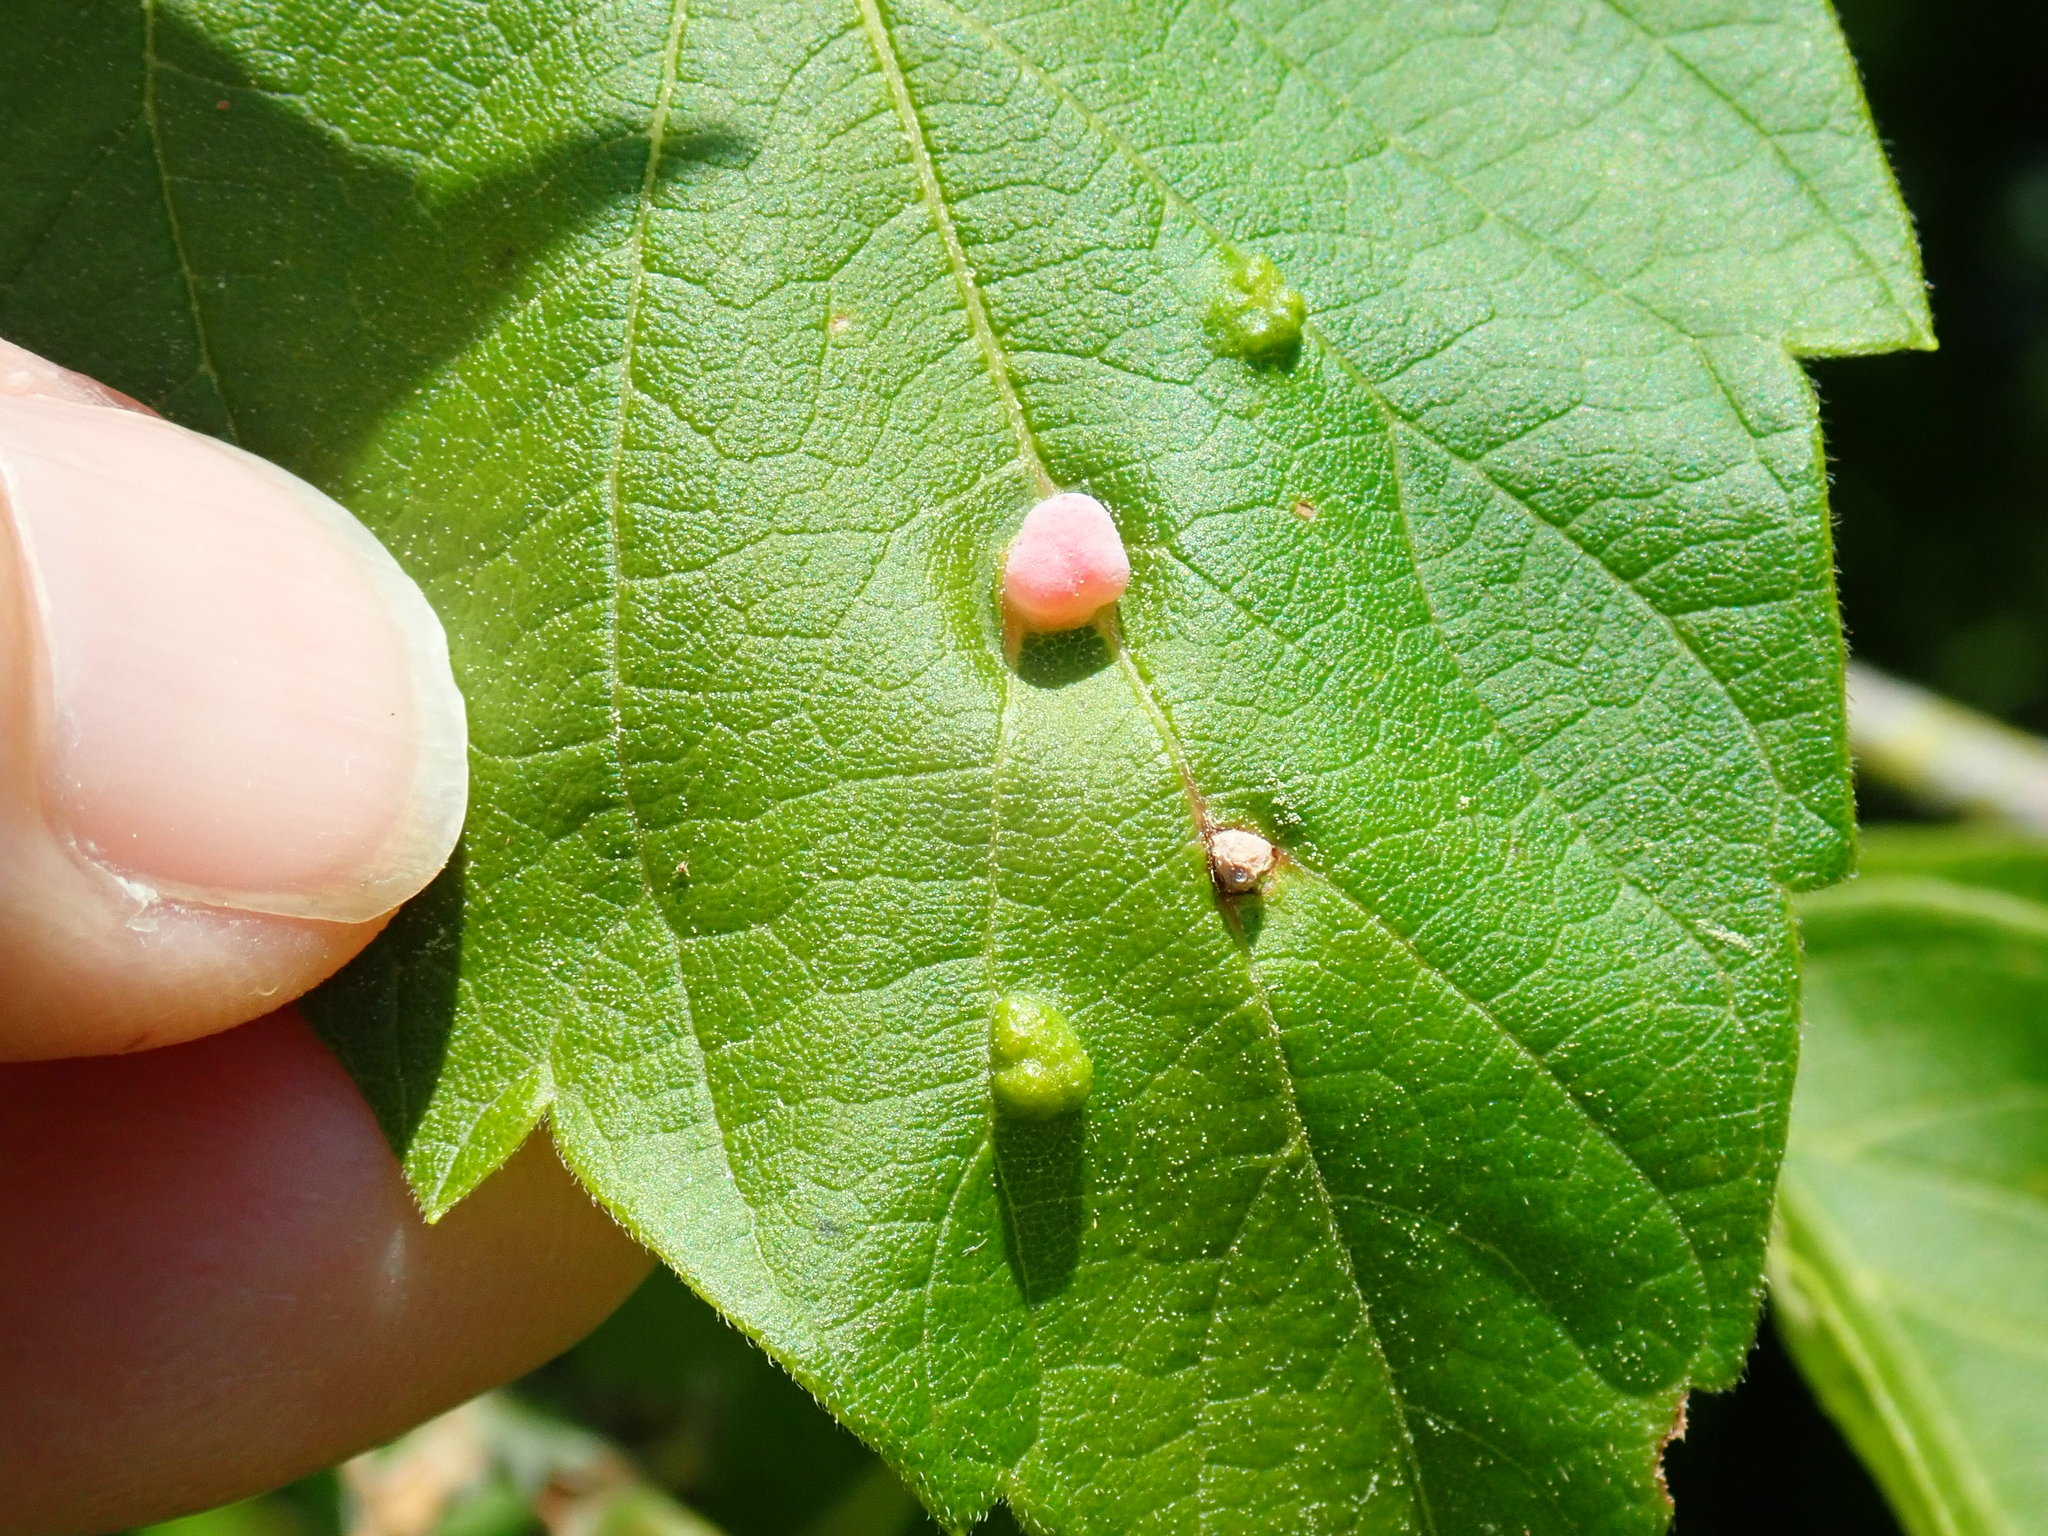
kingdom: Animalia
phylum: Arthropoda
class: Arachnida
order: Trombidiformes
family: Eriophyidae
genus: Aceria
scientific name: Aceria
